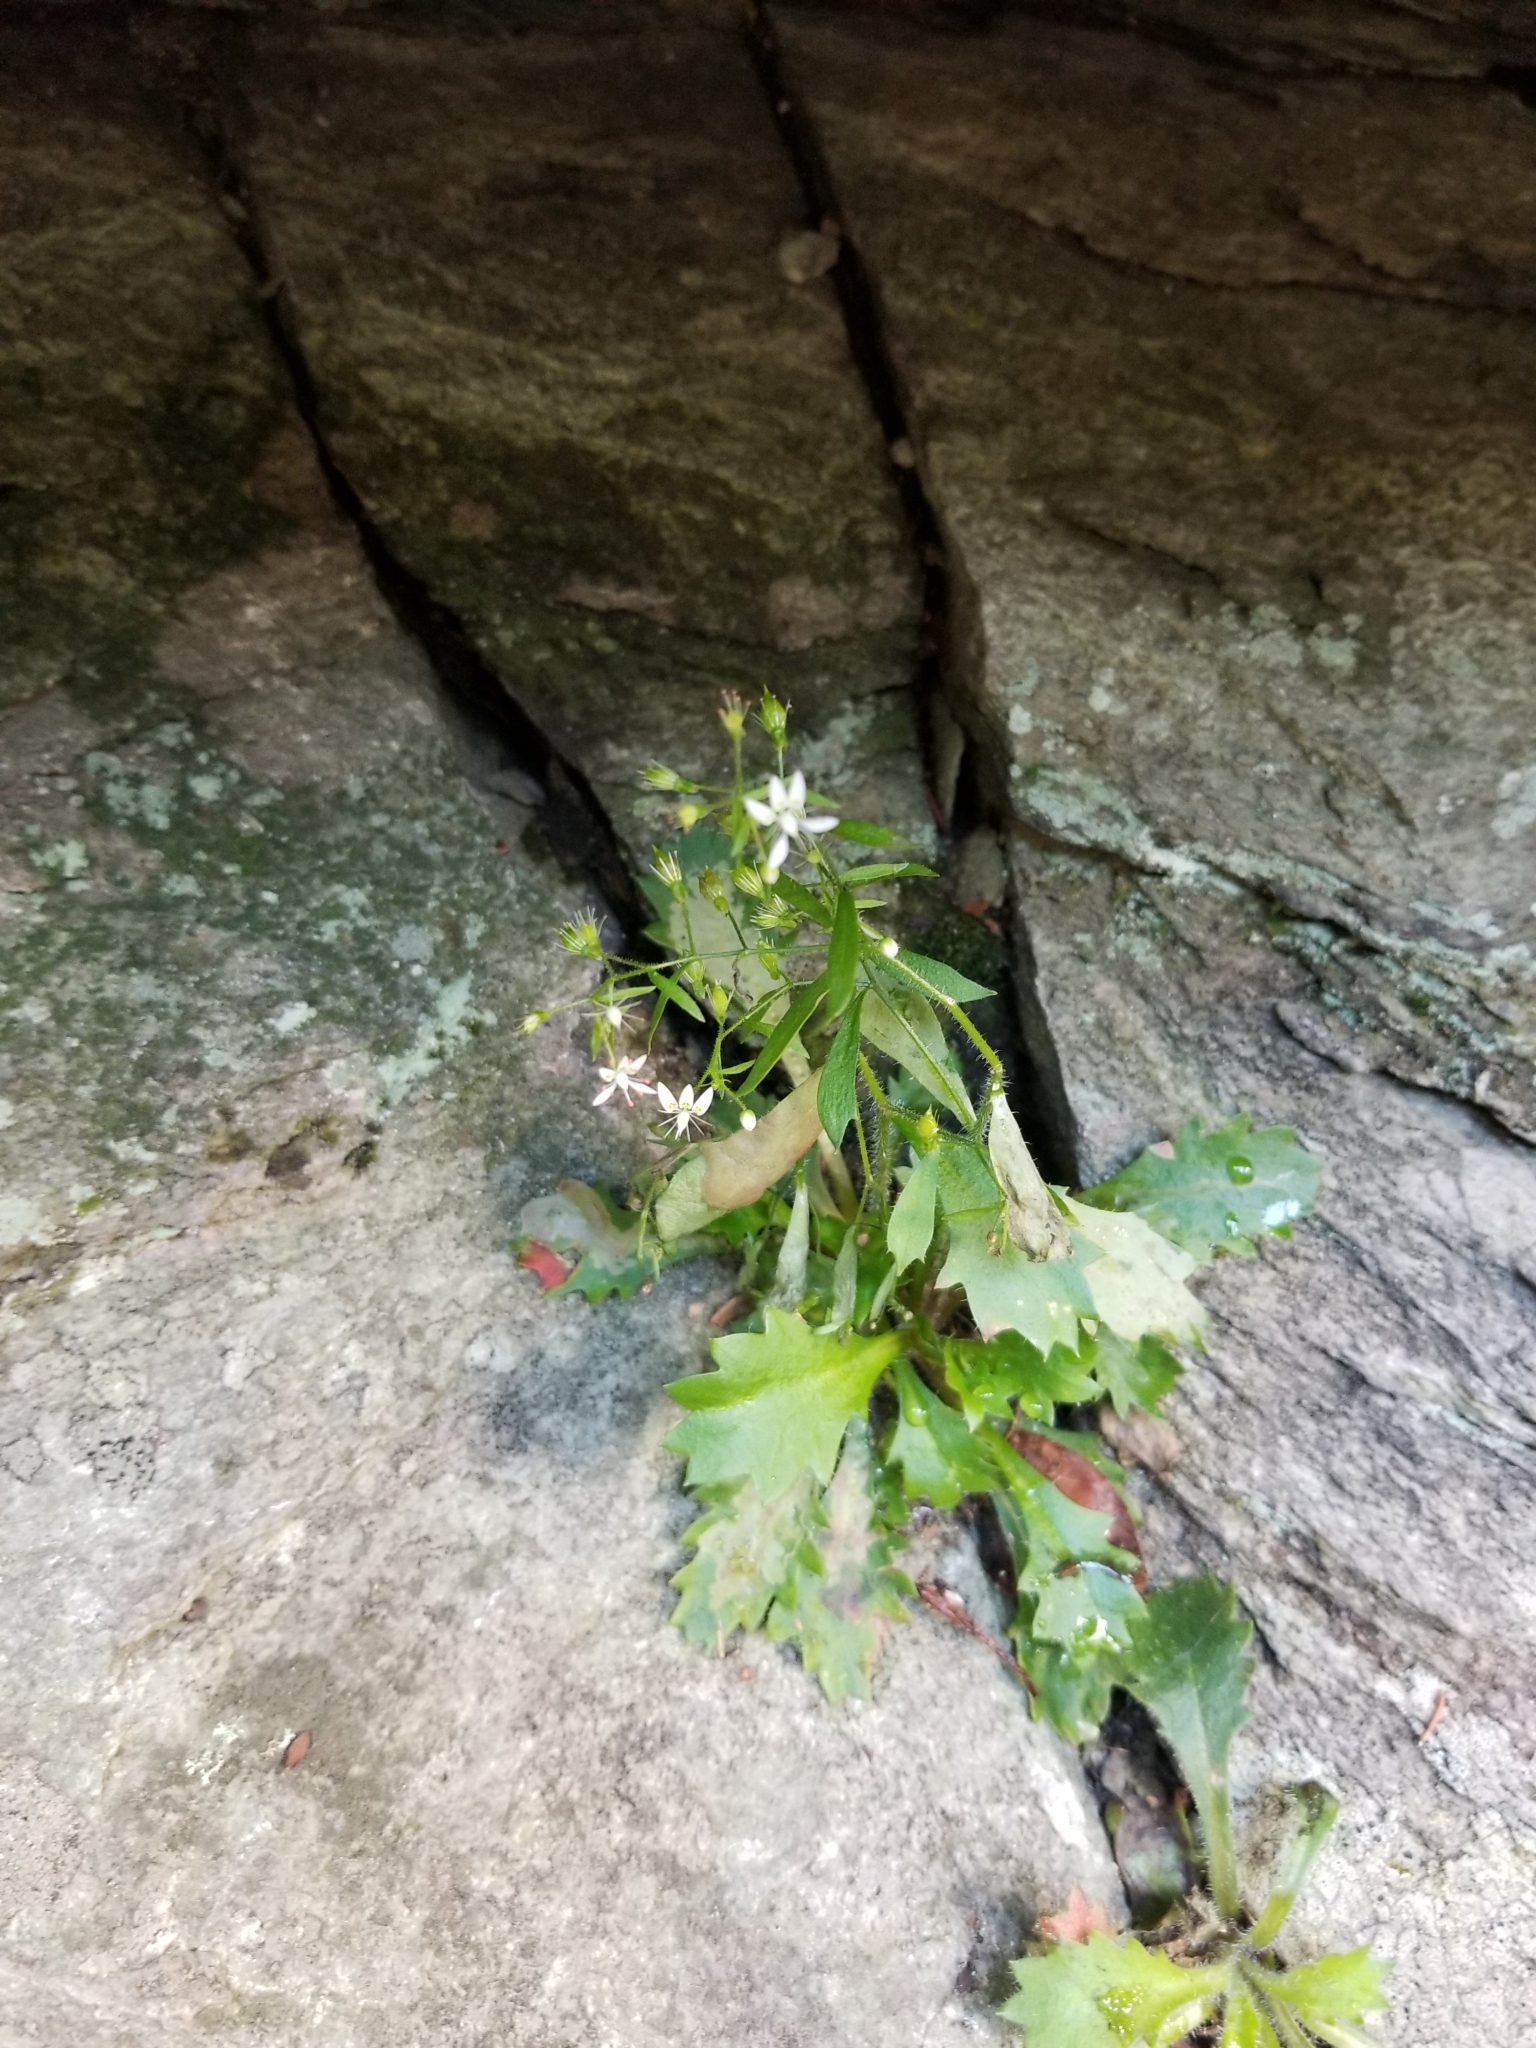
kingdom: Plantae
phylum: Tracheophyta
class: Magnoliopsida
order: Saxifragales
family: Saxifragaceae
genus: Micranthes
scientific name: Micranthes petiolaris
